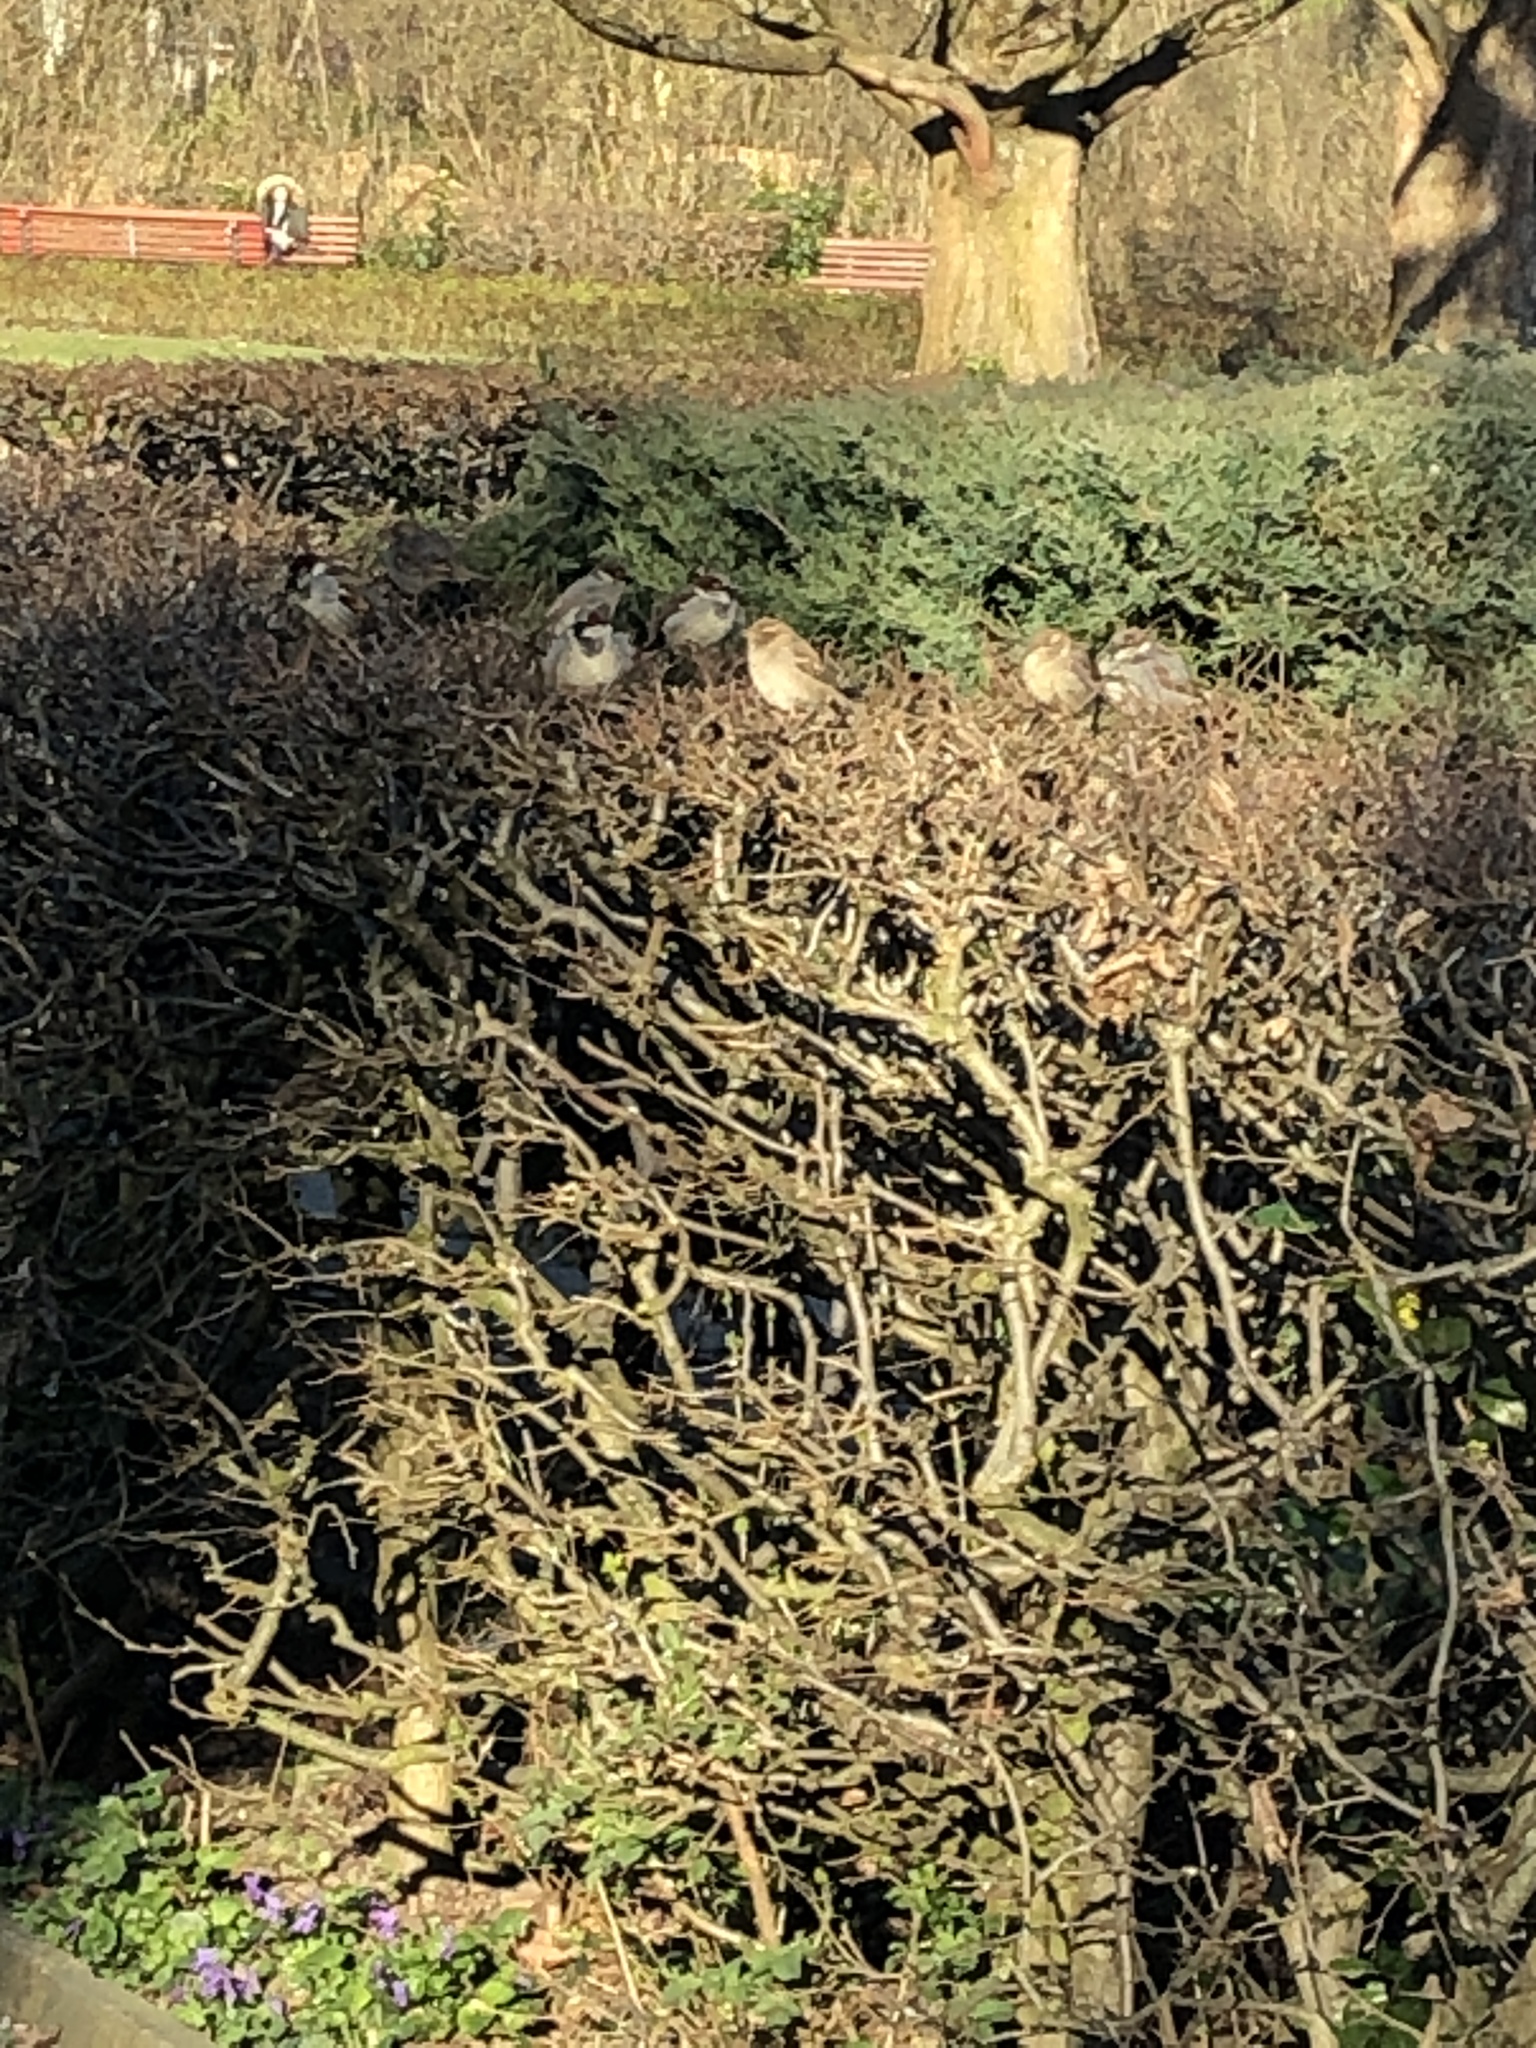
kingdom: Animalia
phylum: Chordata
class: Aves
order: Passeriformes
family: Passeridae
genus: Passer
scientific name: Passer domesticus
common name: House sparrow
